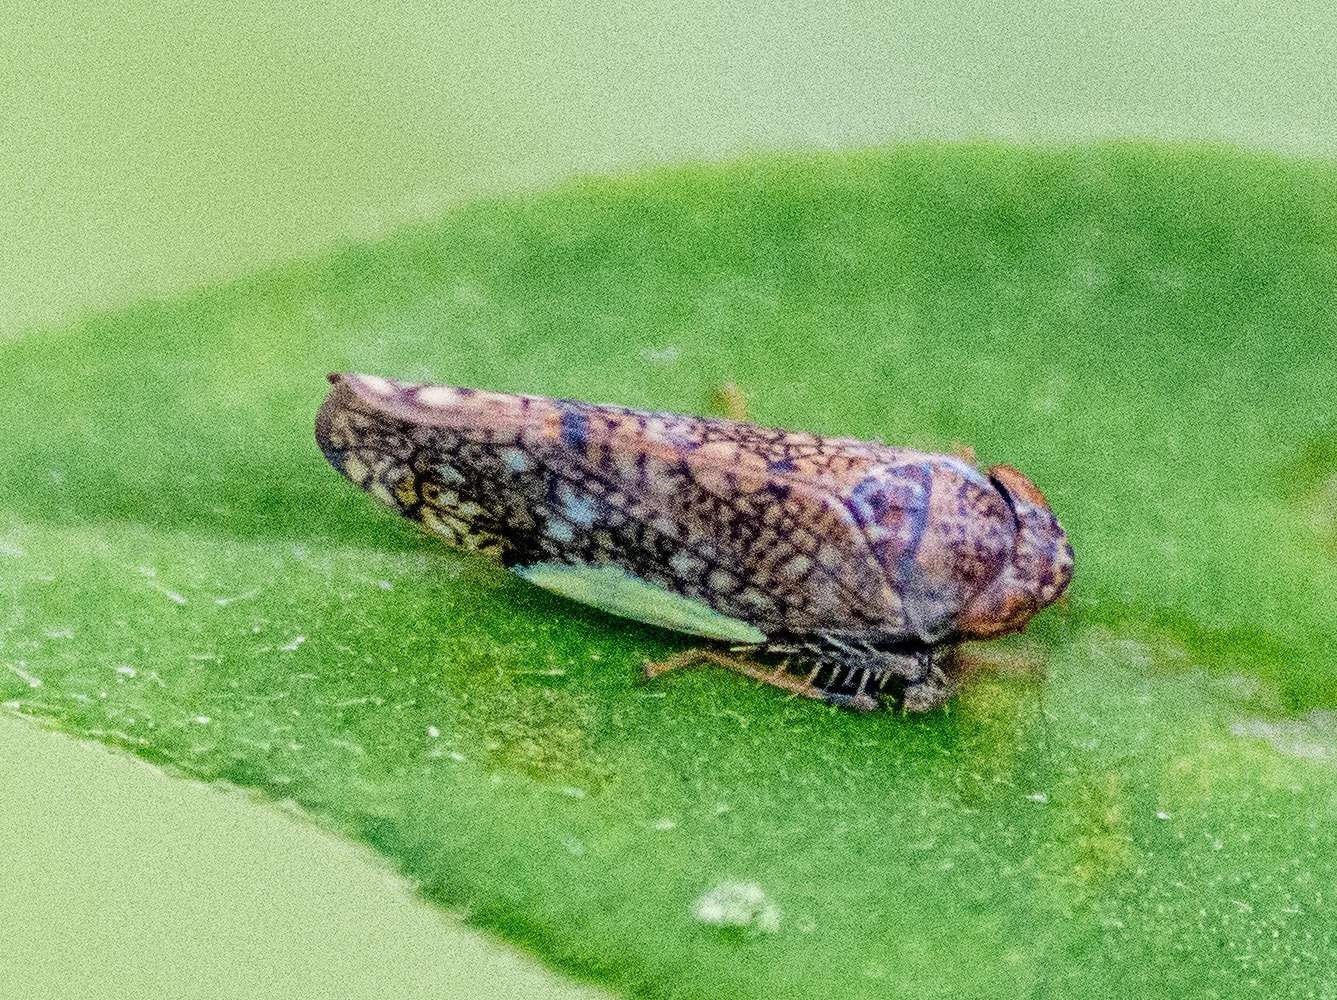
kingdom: Animalia
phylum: Arthropoda
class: Insecta
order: Hemiptera
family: Cicadellidae
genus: Orientus
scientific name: Orientus ishidae
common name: Japanese leafhopper
